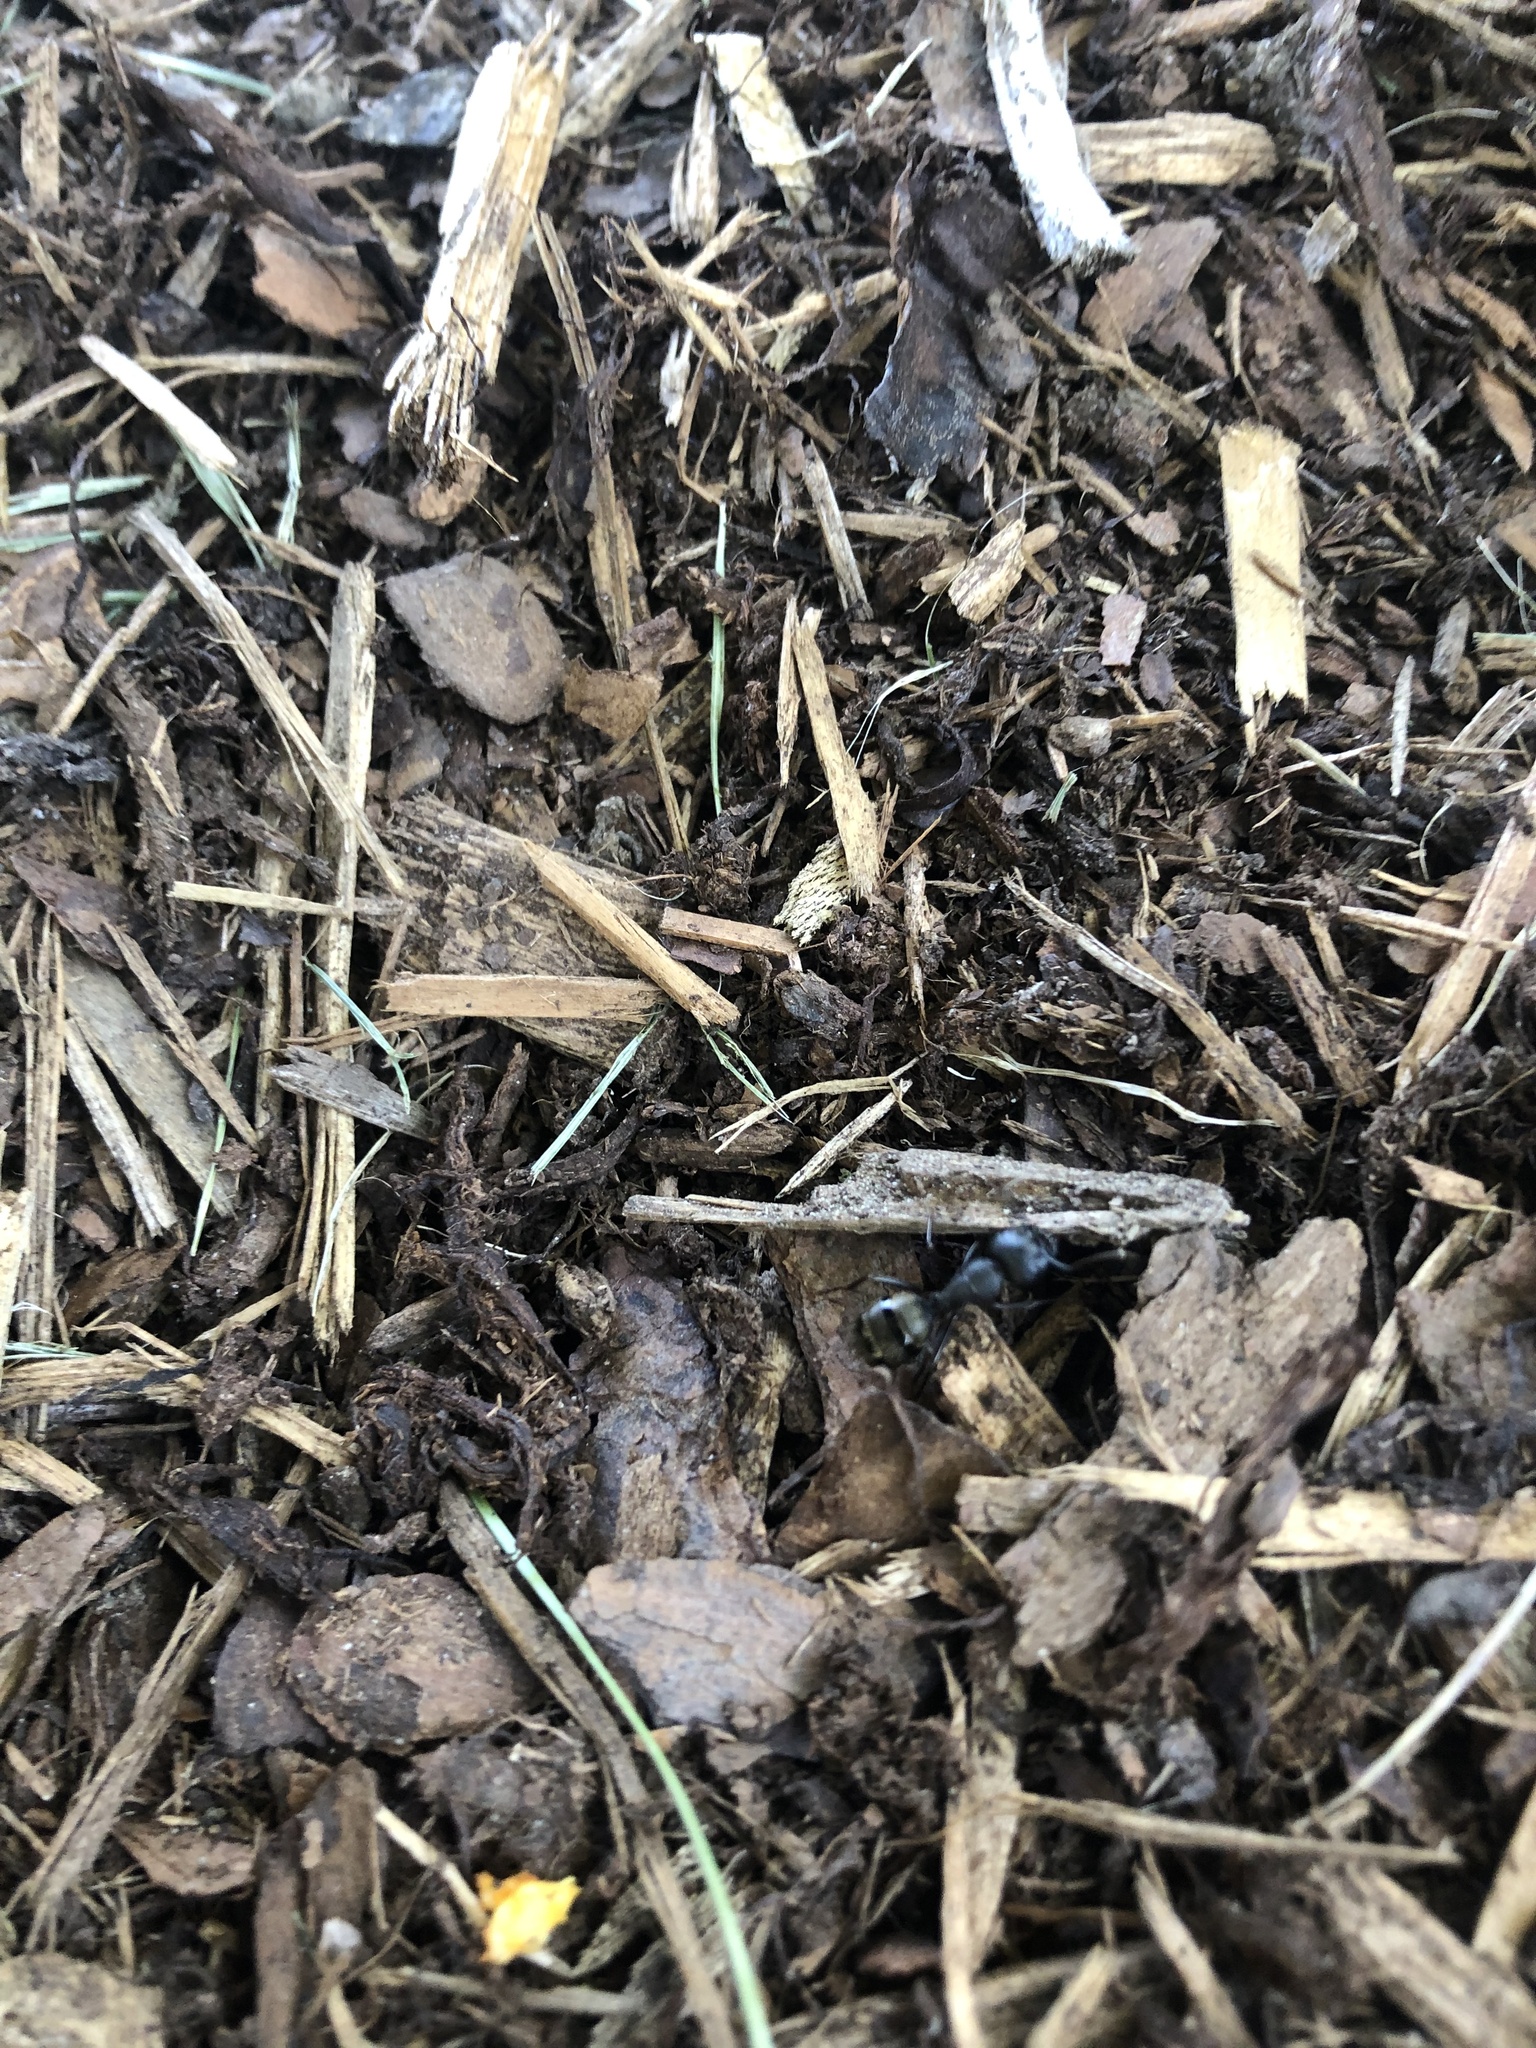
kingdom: Animalia
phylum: Arthropoda
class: Insecta
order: Hymenoptera
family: Formicidae
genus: Camponotus
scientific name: Camponotus pennsylvanicus
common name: Black carpenter ant
